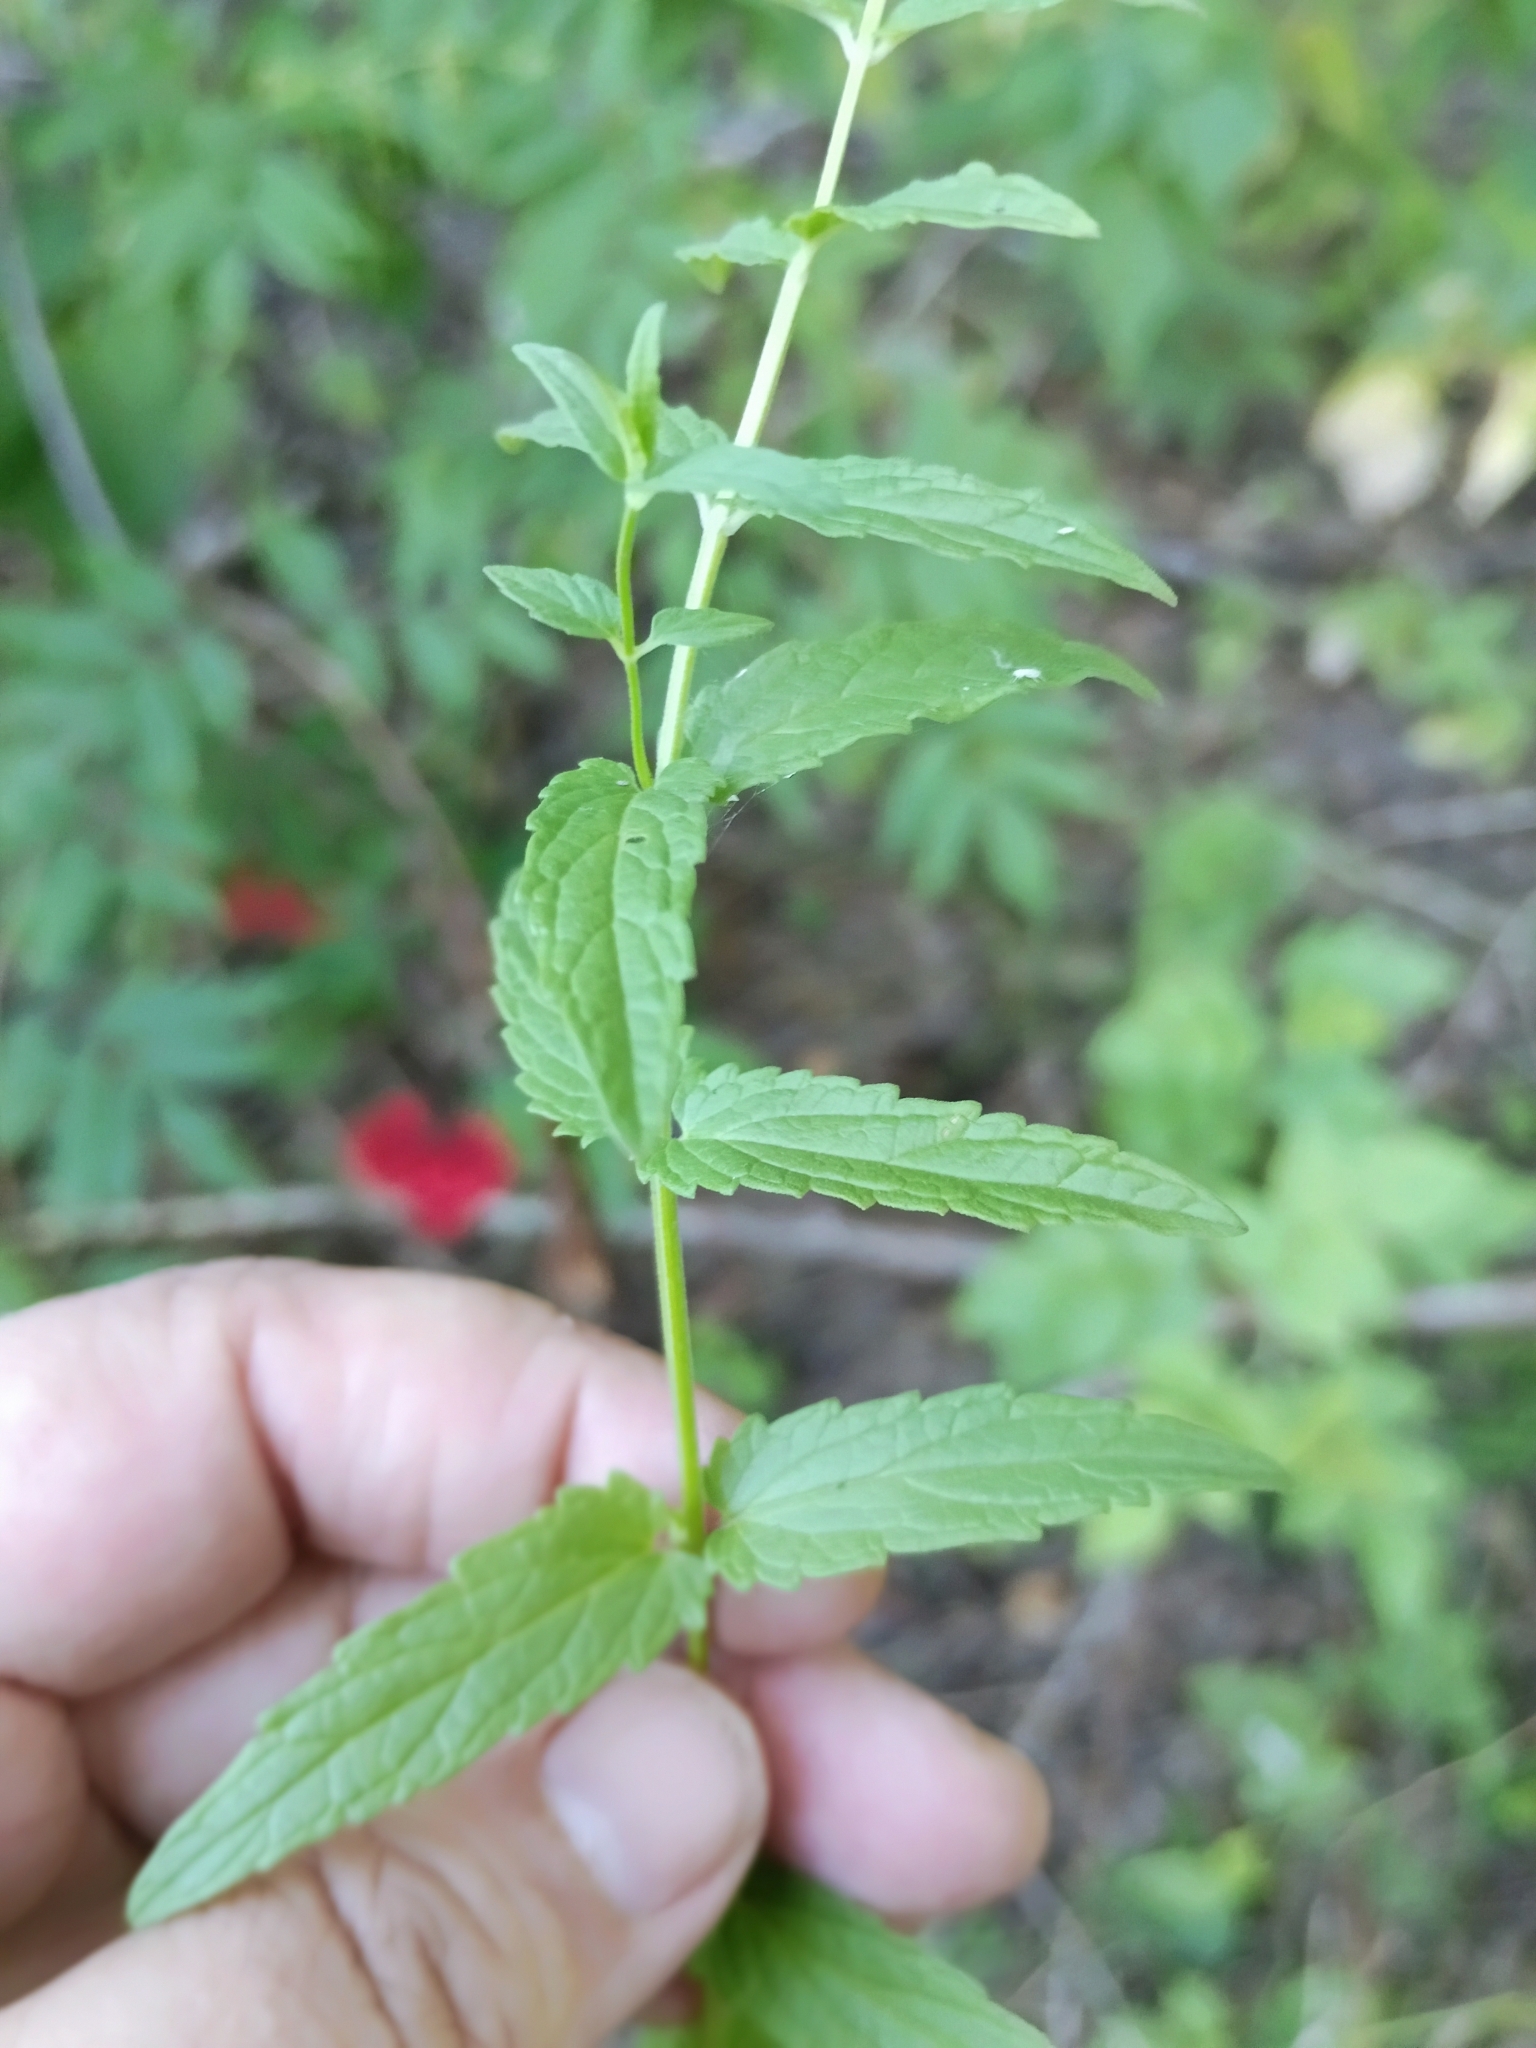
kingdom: Plantae
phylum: Tracheophyta
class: Magnoliopsida
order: Lamiales
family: Lamiaceae
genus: Scutellaria
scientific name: Scutellaria scordiifolia
